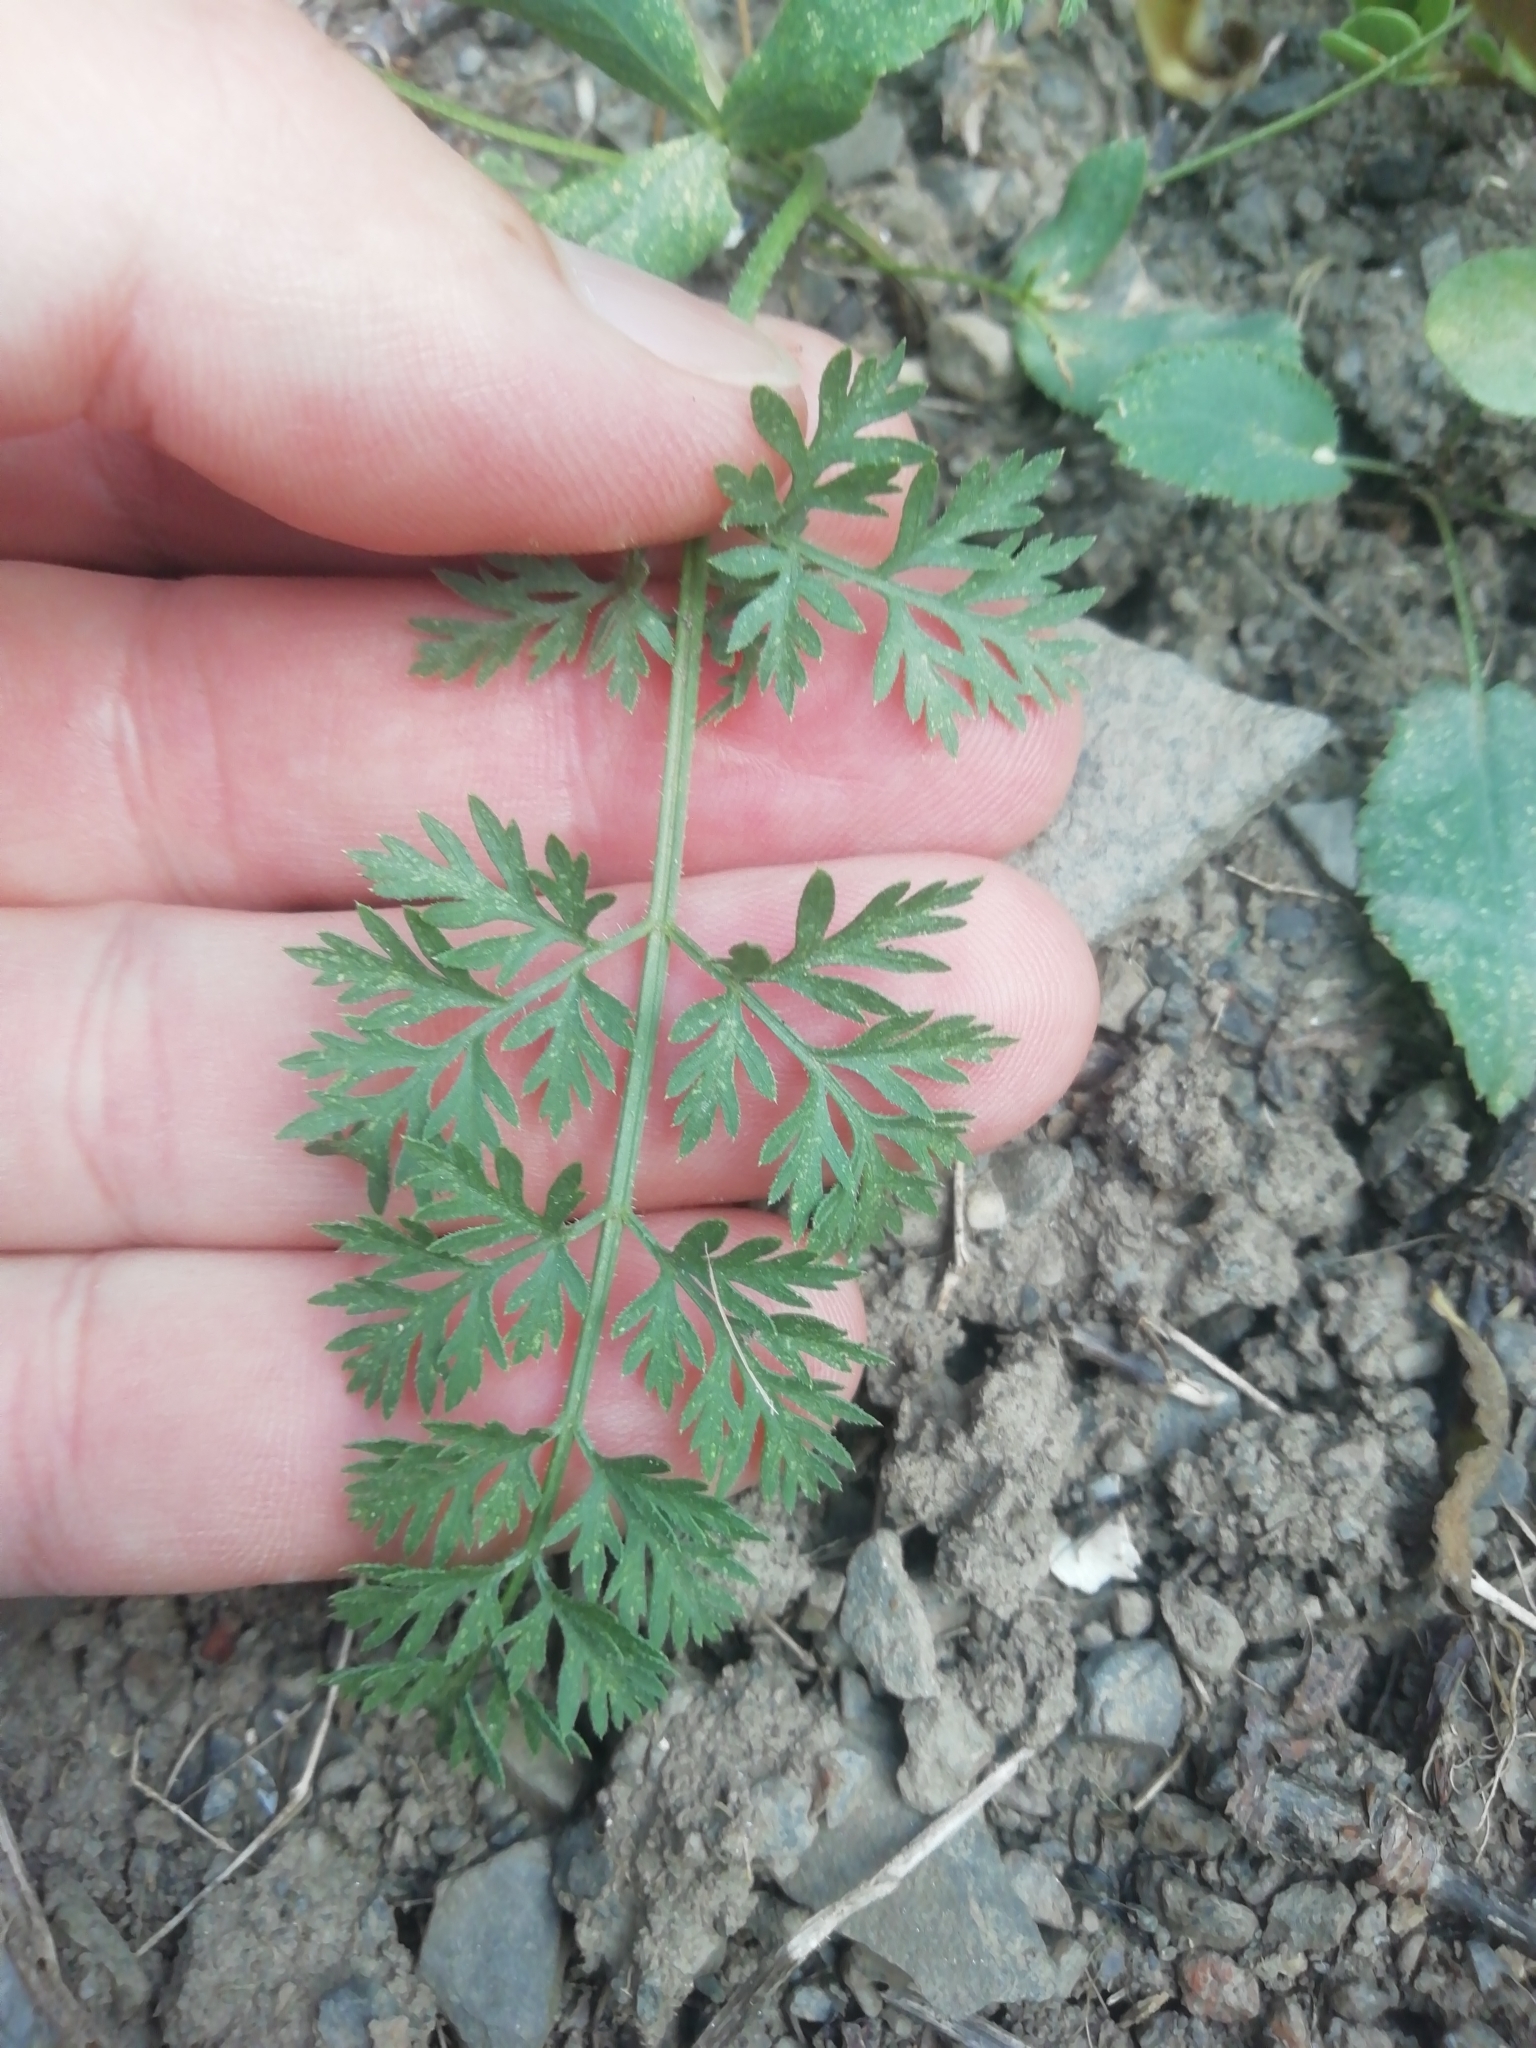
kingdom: Plantae
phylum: Tracheophyta
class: Magnoliopsida
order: Apiales
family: Apiaceae
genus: Daucus
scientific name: Daucus carota
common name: Wild carrot
